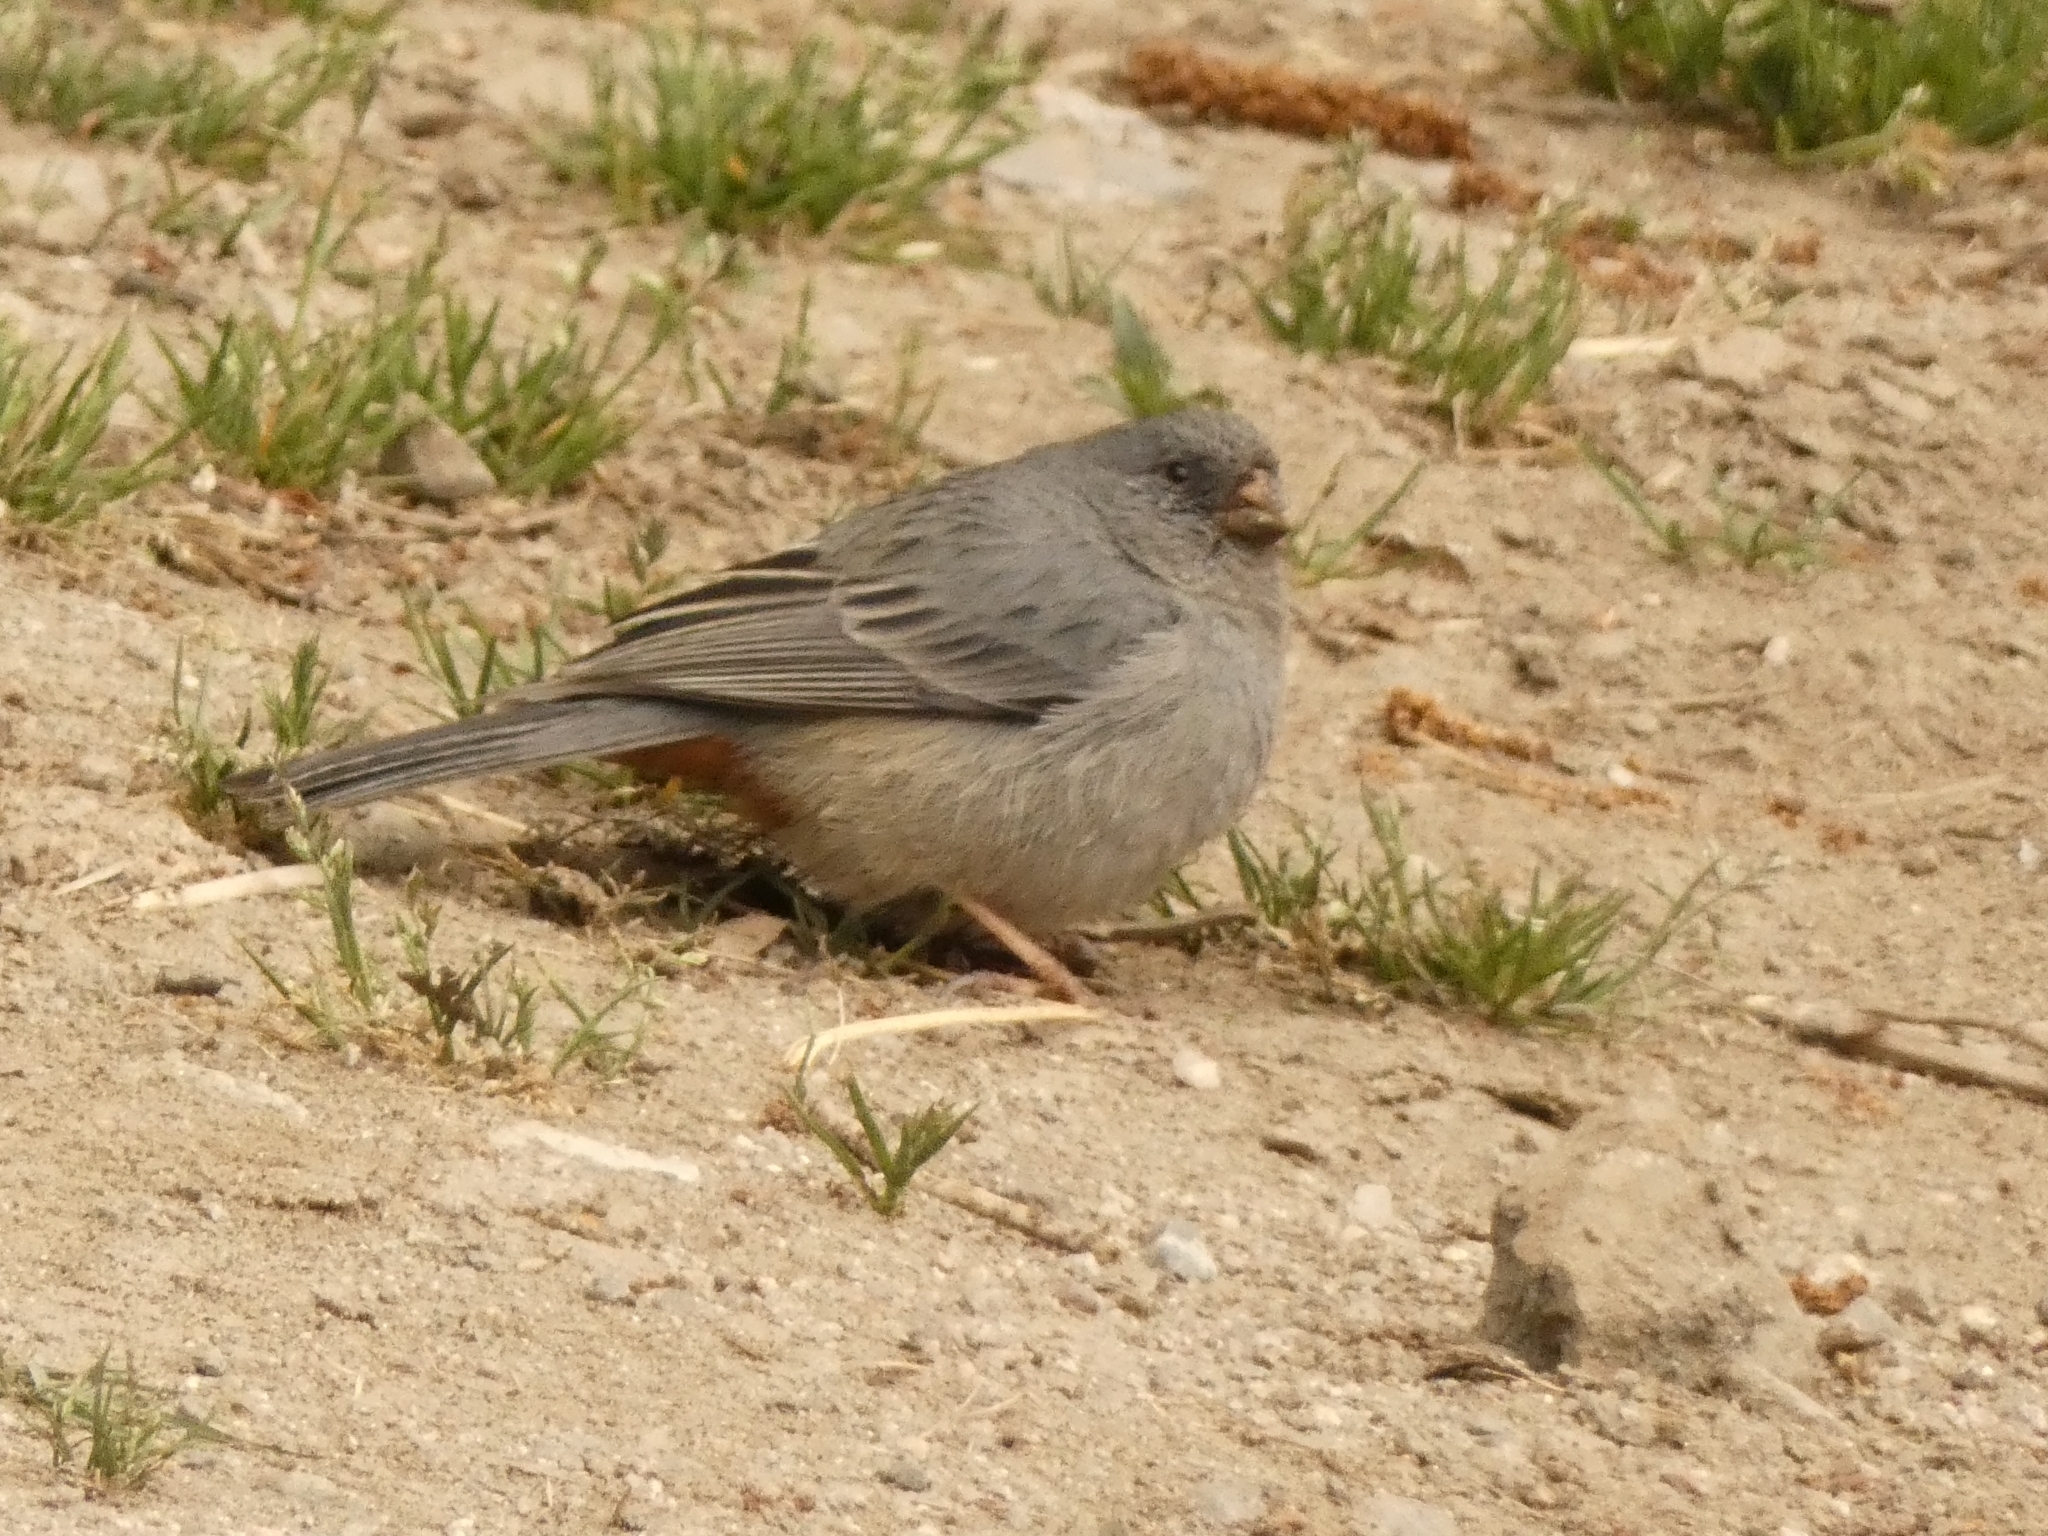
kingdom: Animalia
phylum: Chordata
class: Aves
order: Passeriformes
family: Thraupidae
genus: Catamenia
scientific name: Catamenia inornata
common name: Plain-colored seedeater
